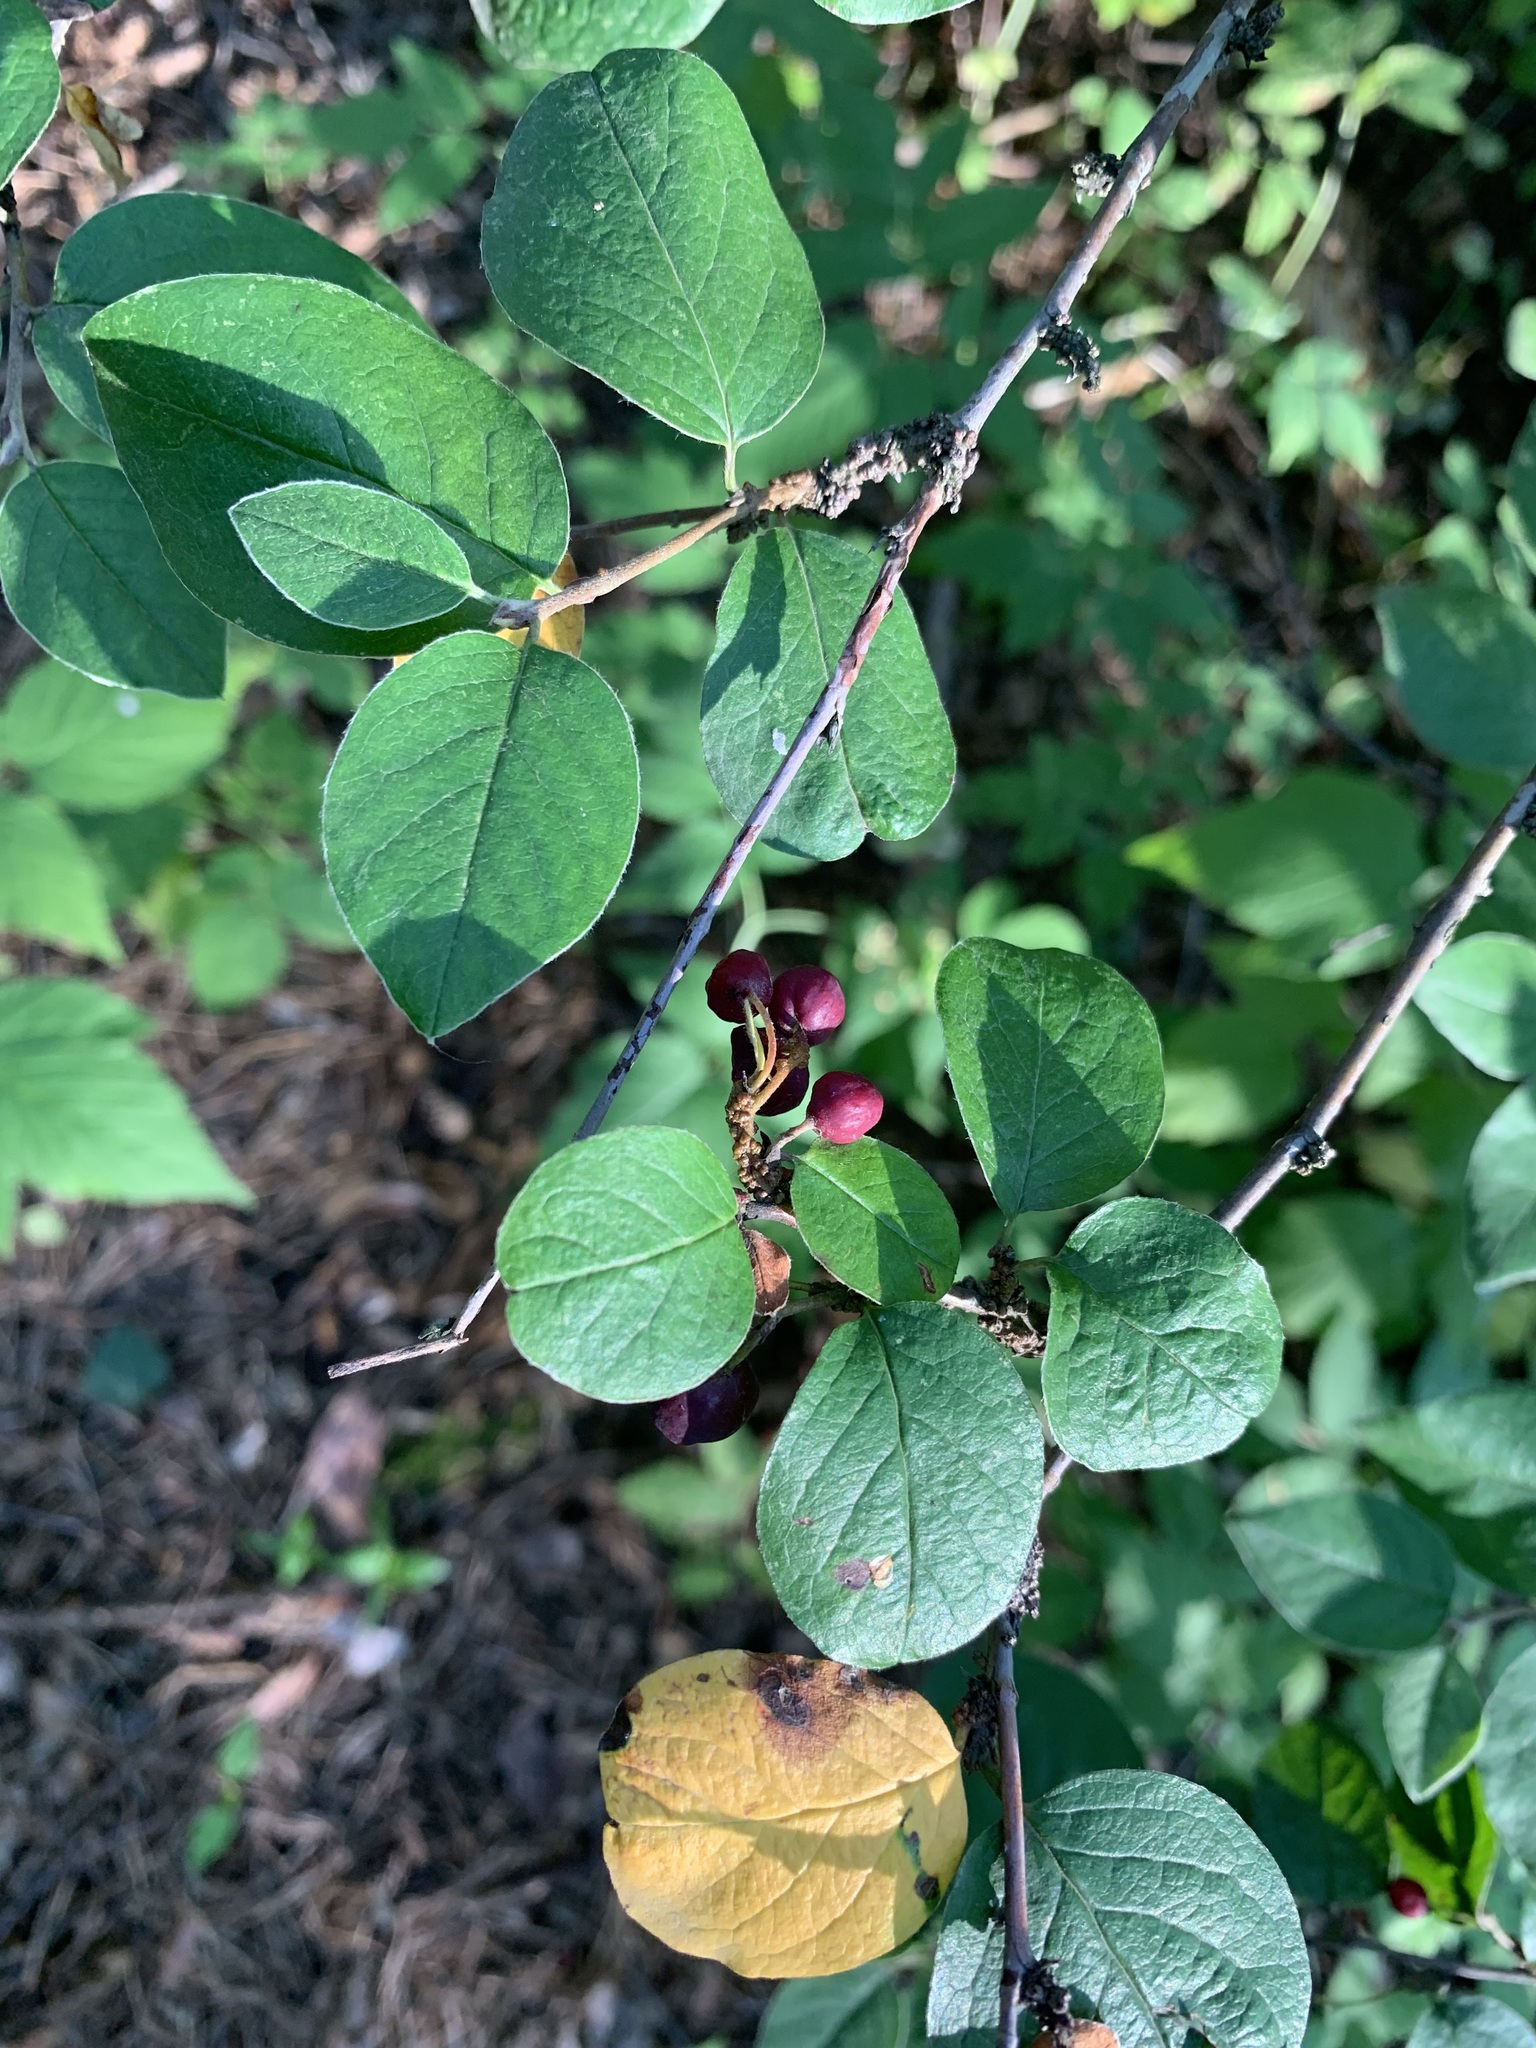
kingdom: Plantae
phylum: Tracheophyta
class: Magnoliopsida
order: Rosales
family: Rosaceae
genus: Cotoneaster
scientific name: Cotoneaster melanocarpus
